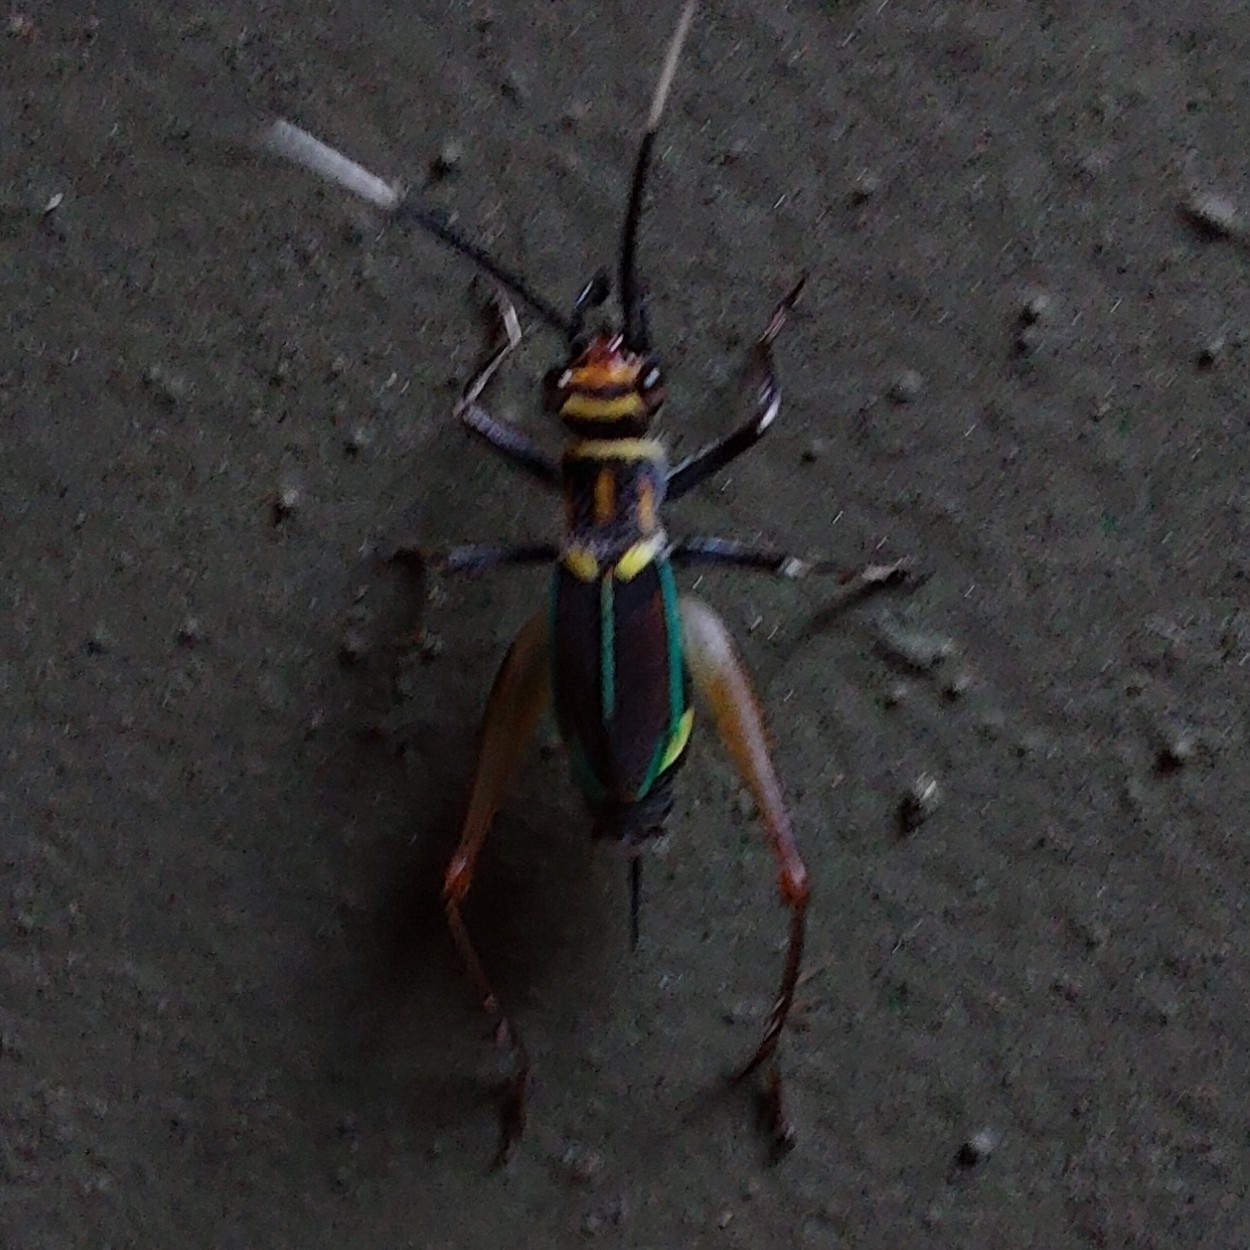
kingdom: Animalia
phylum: Arthropoda
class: Insecta
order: Orthoptera
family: Trigonidiidae
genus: Phylloscyrtus
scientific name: Phylloscyrtus amoenus
